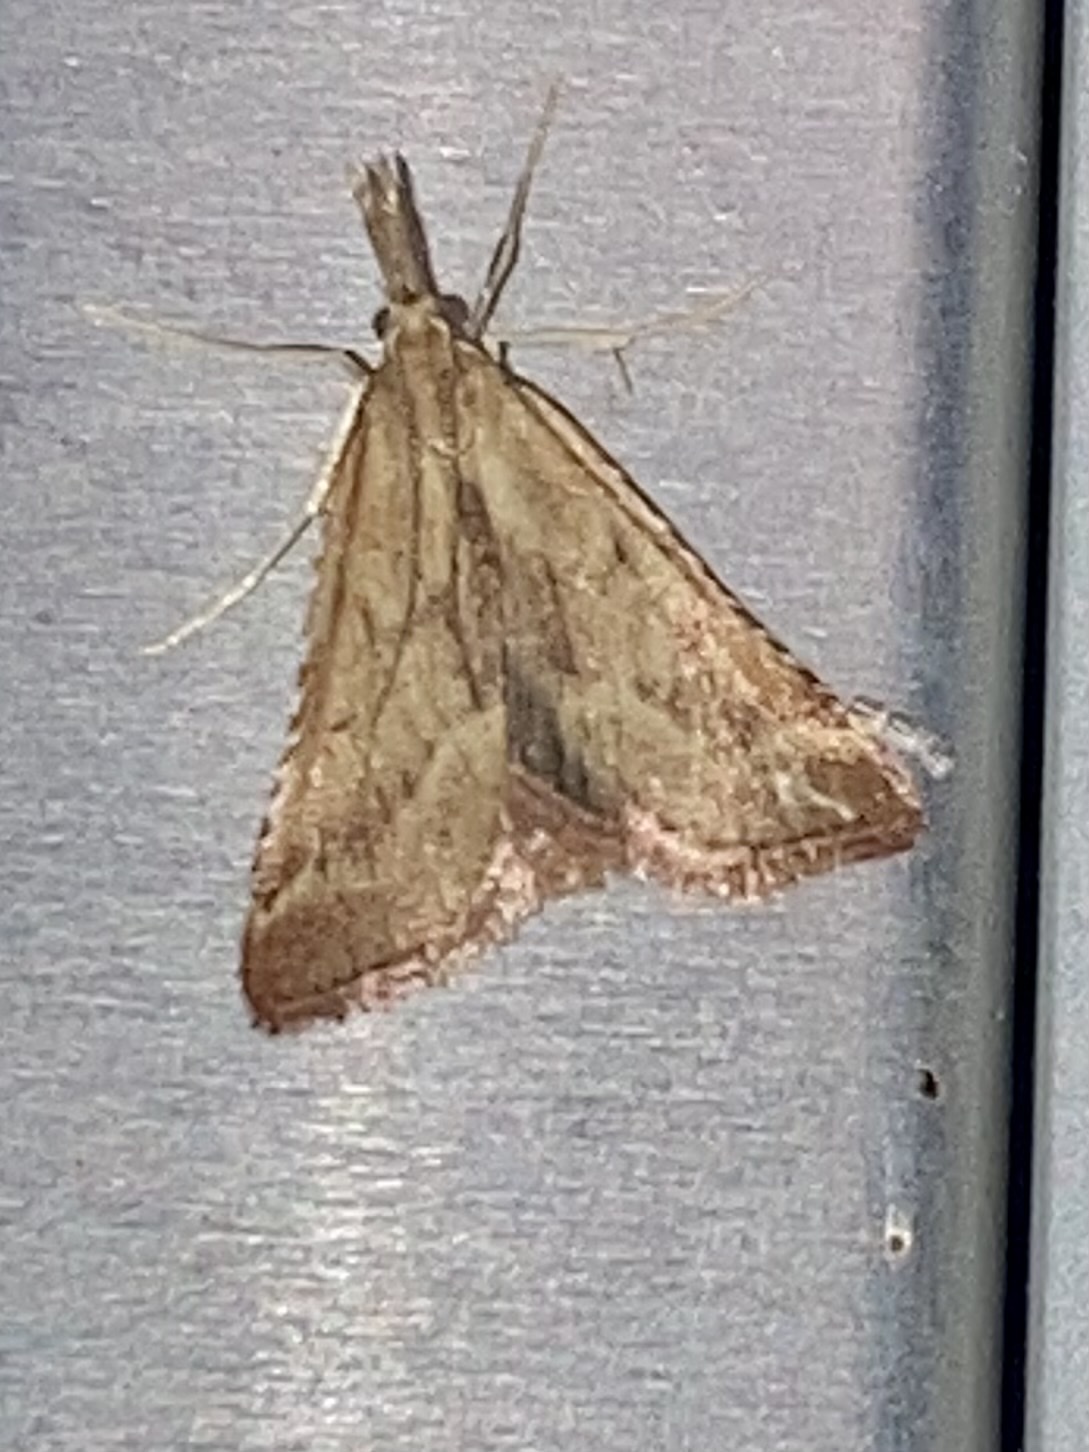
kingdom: Animalia
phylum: Arthropoda
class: Insecta
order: Lepidoptera
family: Pyralidae
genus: Synaphe
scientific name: Synaphe punctalis
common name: Long-legged tabby
